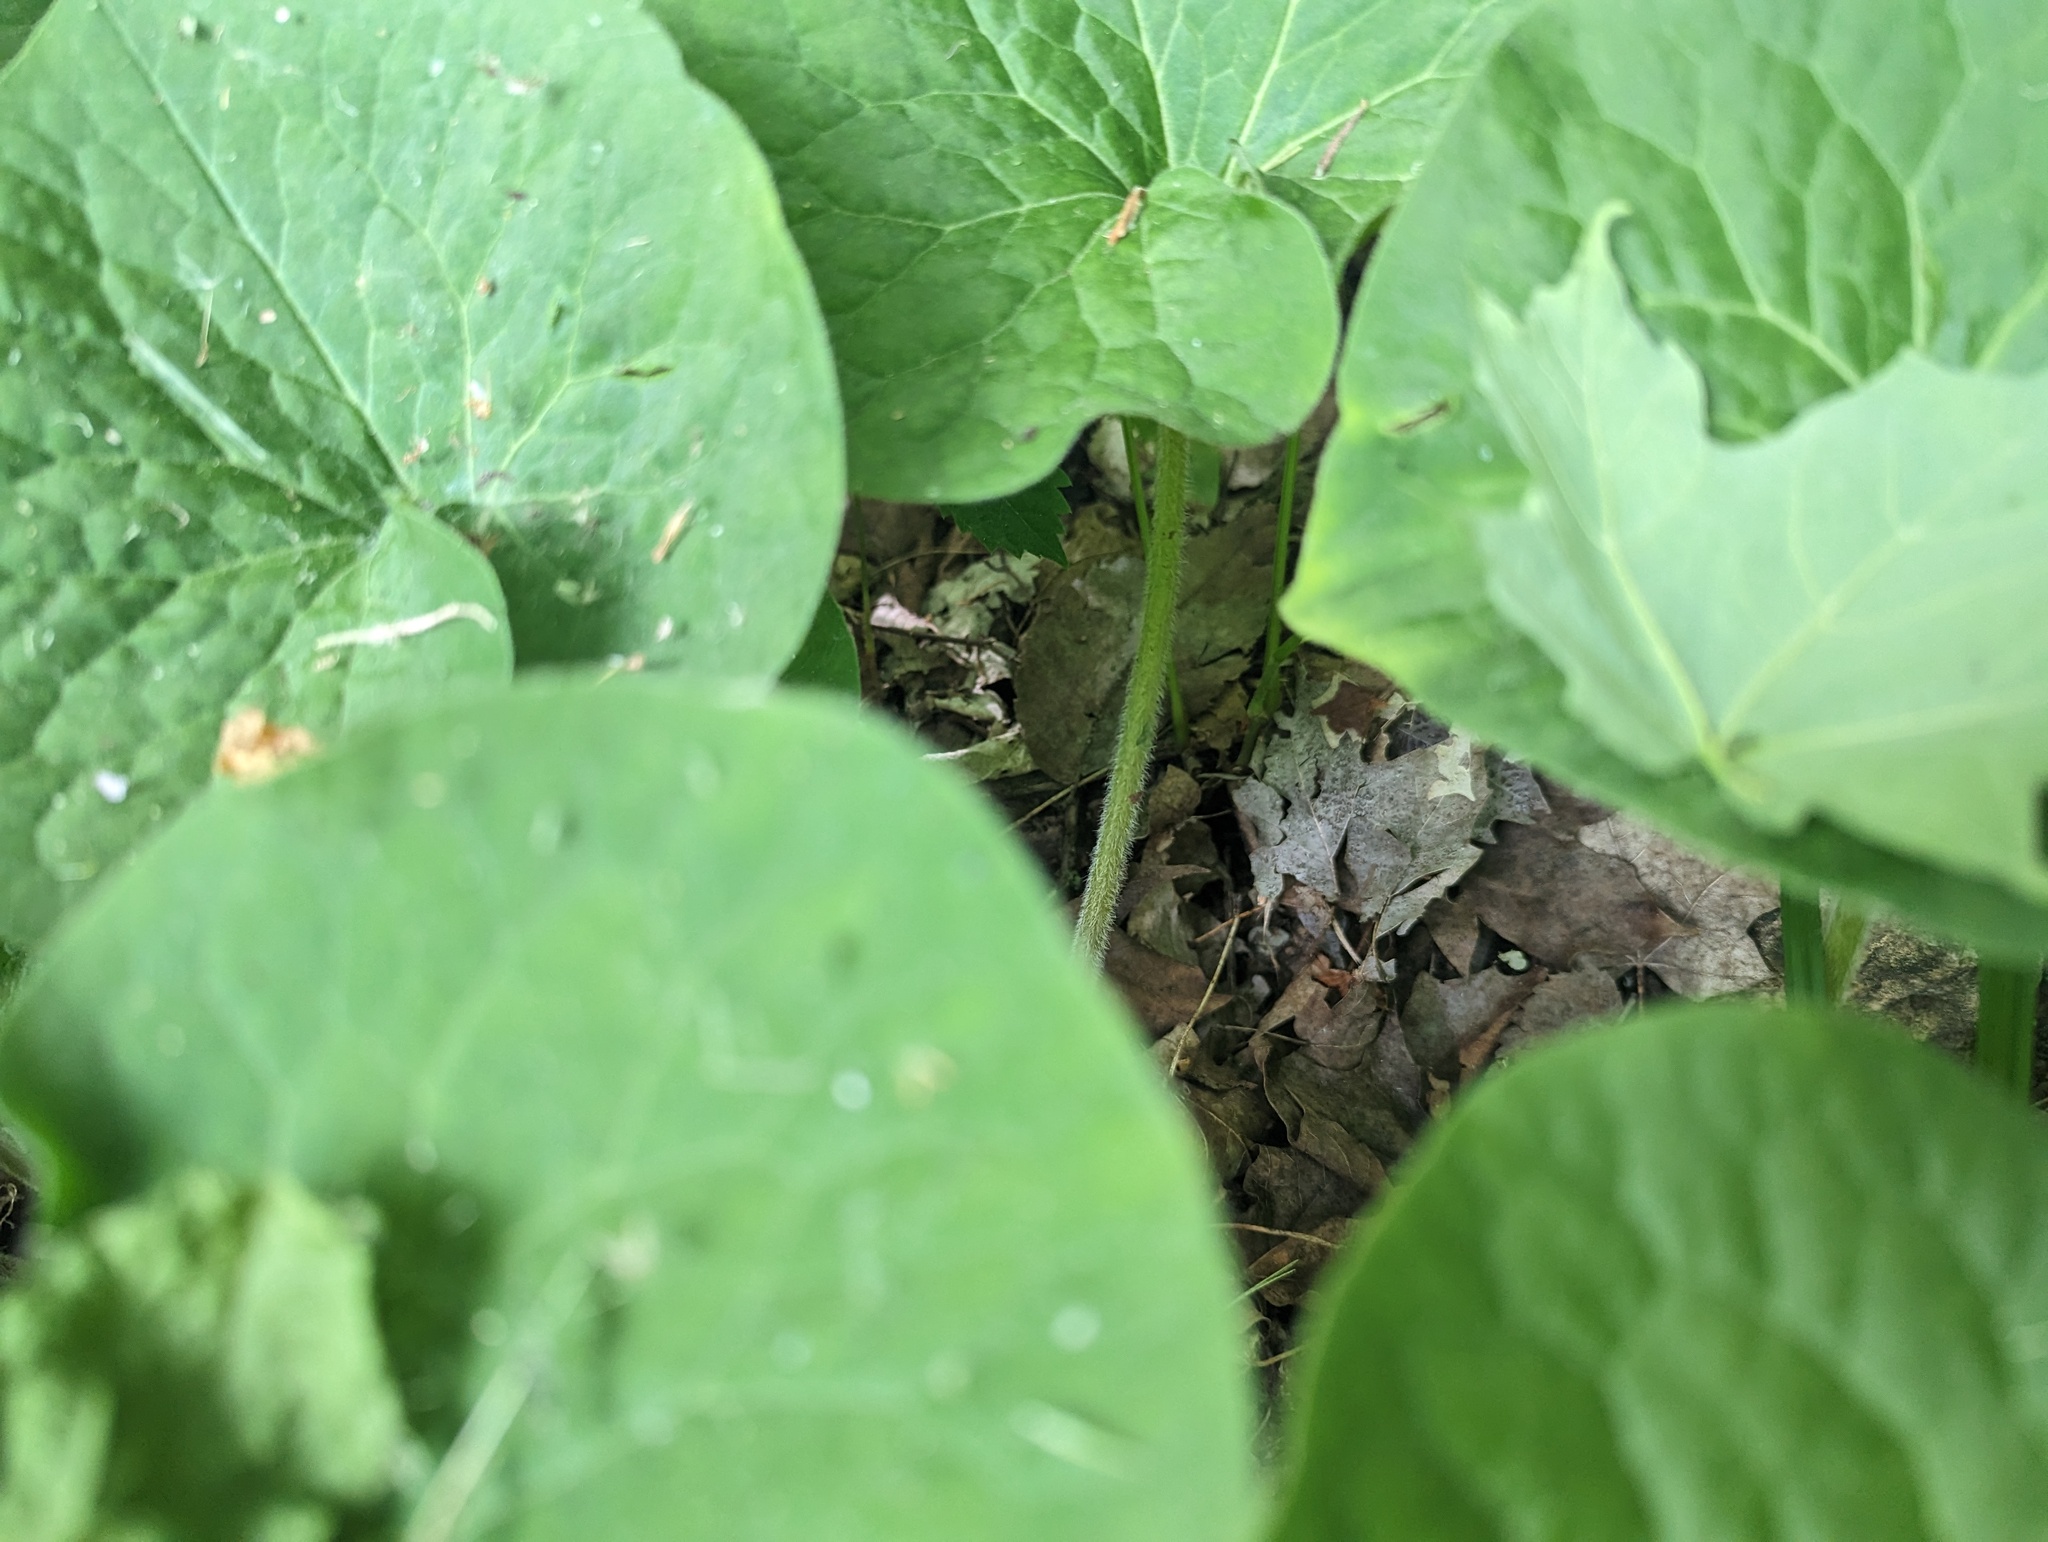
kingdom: Plantae
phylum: Tracheophyta
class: Magnoliopsida
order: Piperales
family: Aristolochiaceae
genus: Asarum
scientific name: Asarum canadense
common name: Wild ginger
